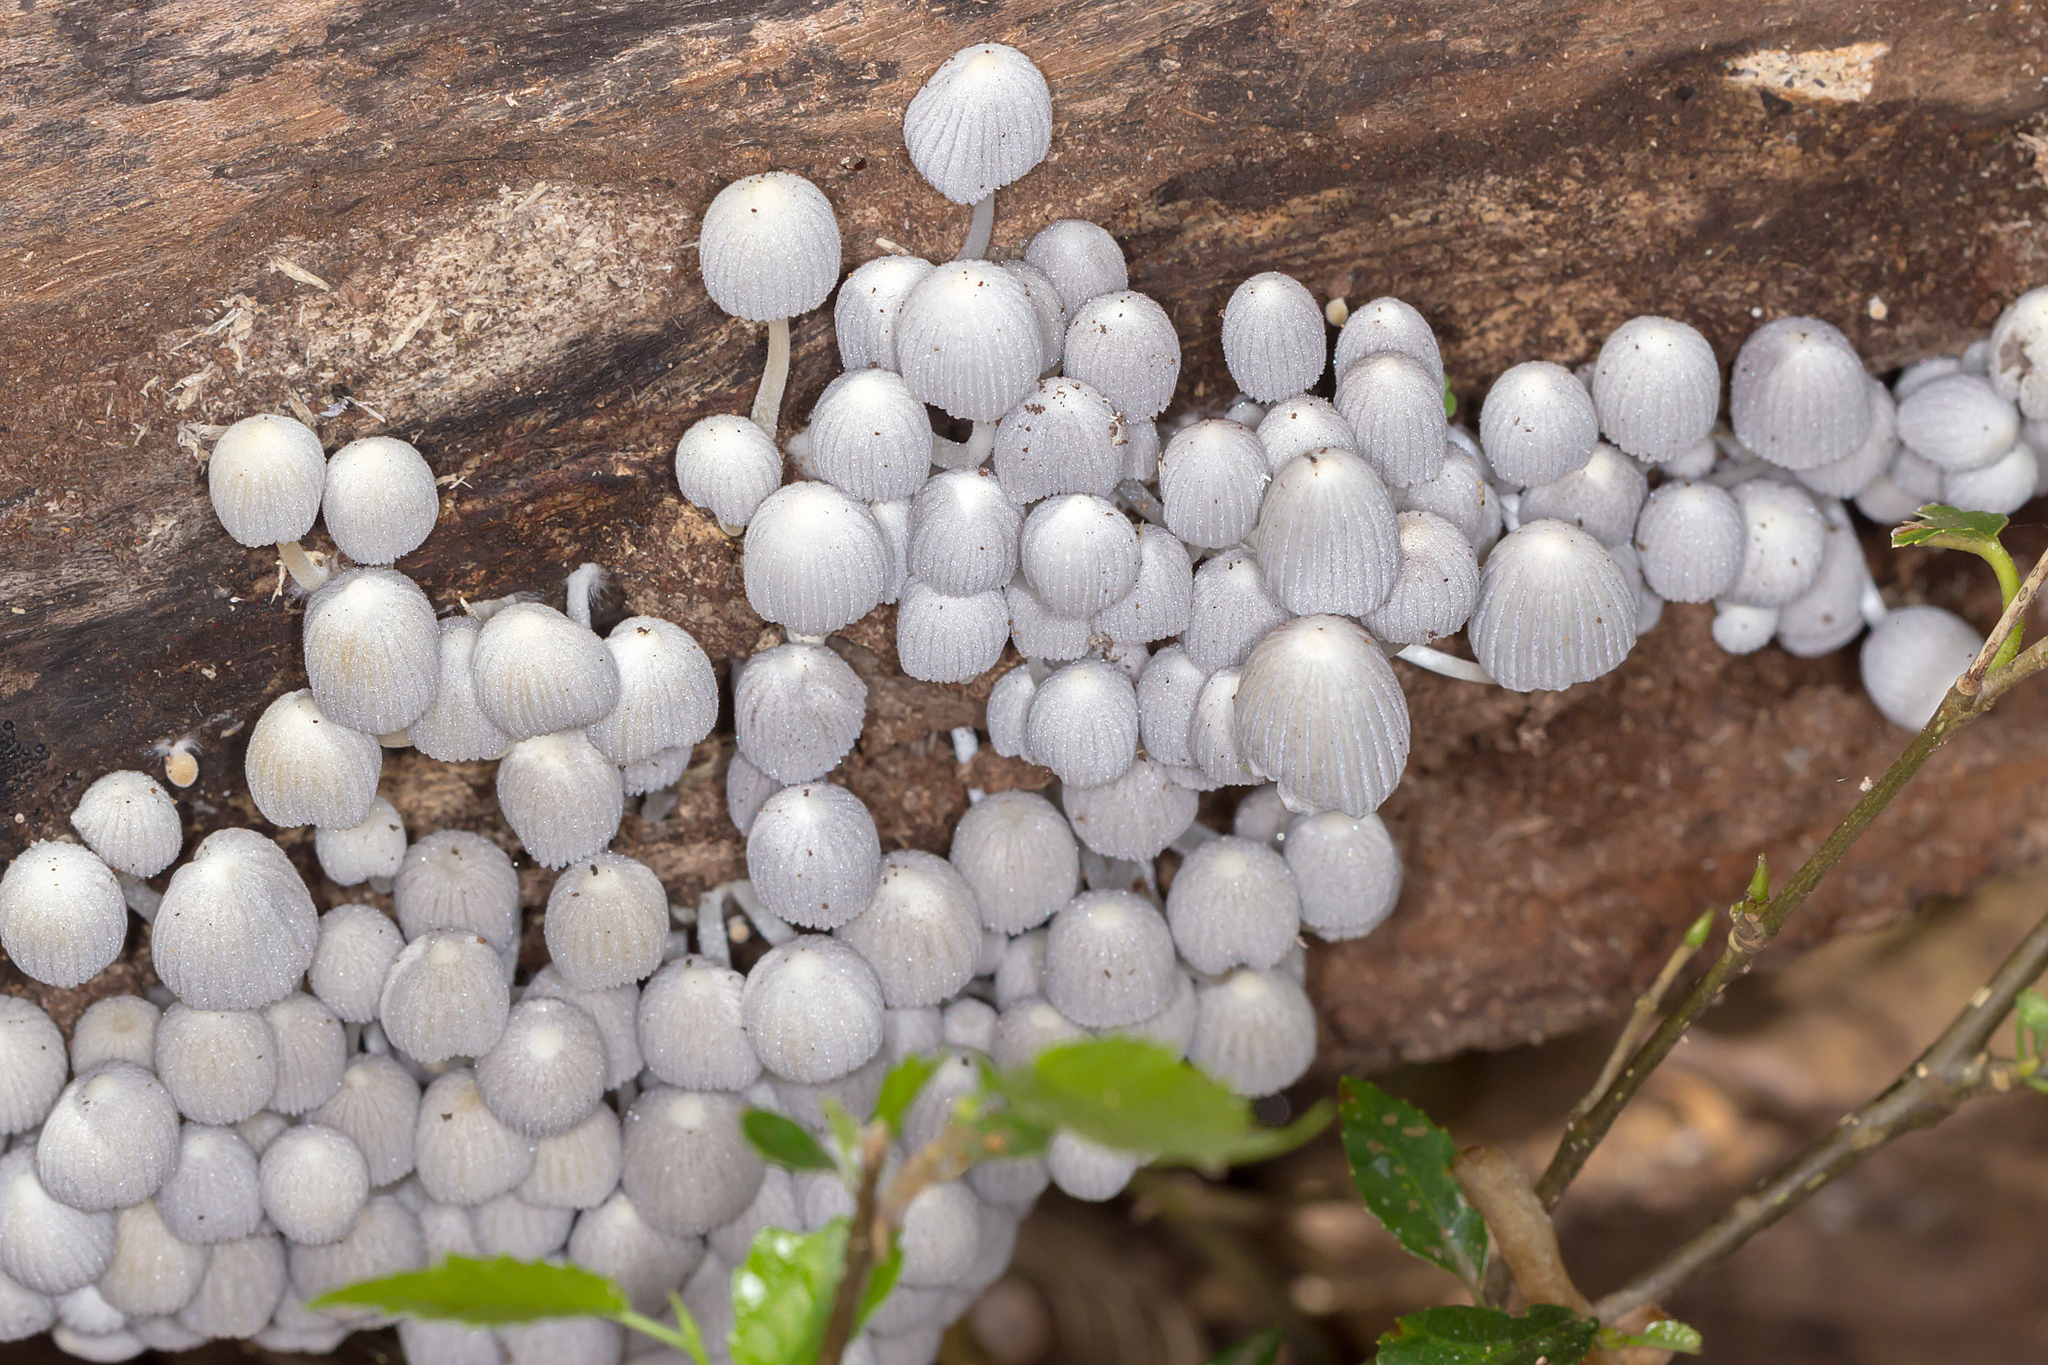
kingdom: Fungi
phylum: Basidiomycota
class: Agaricomycetes
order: Agaricales
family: Psathyrellaceae
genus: Coprinellus
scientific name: Coprinellus disseminatus
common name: Fairies' bonnets
